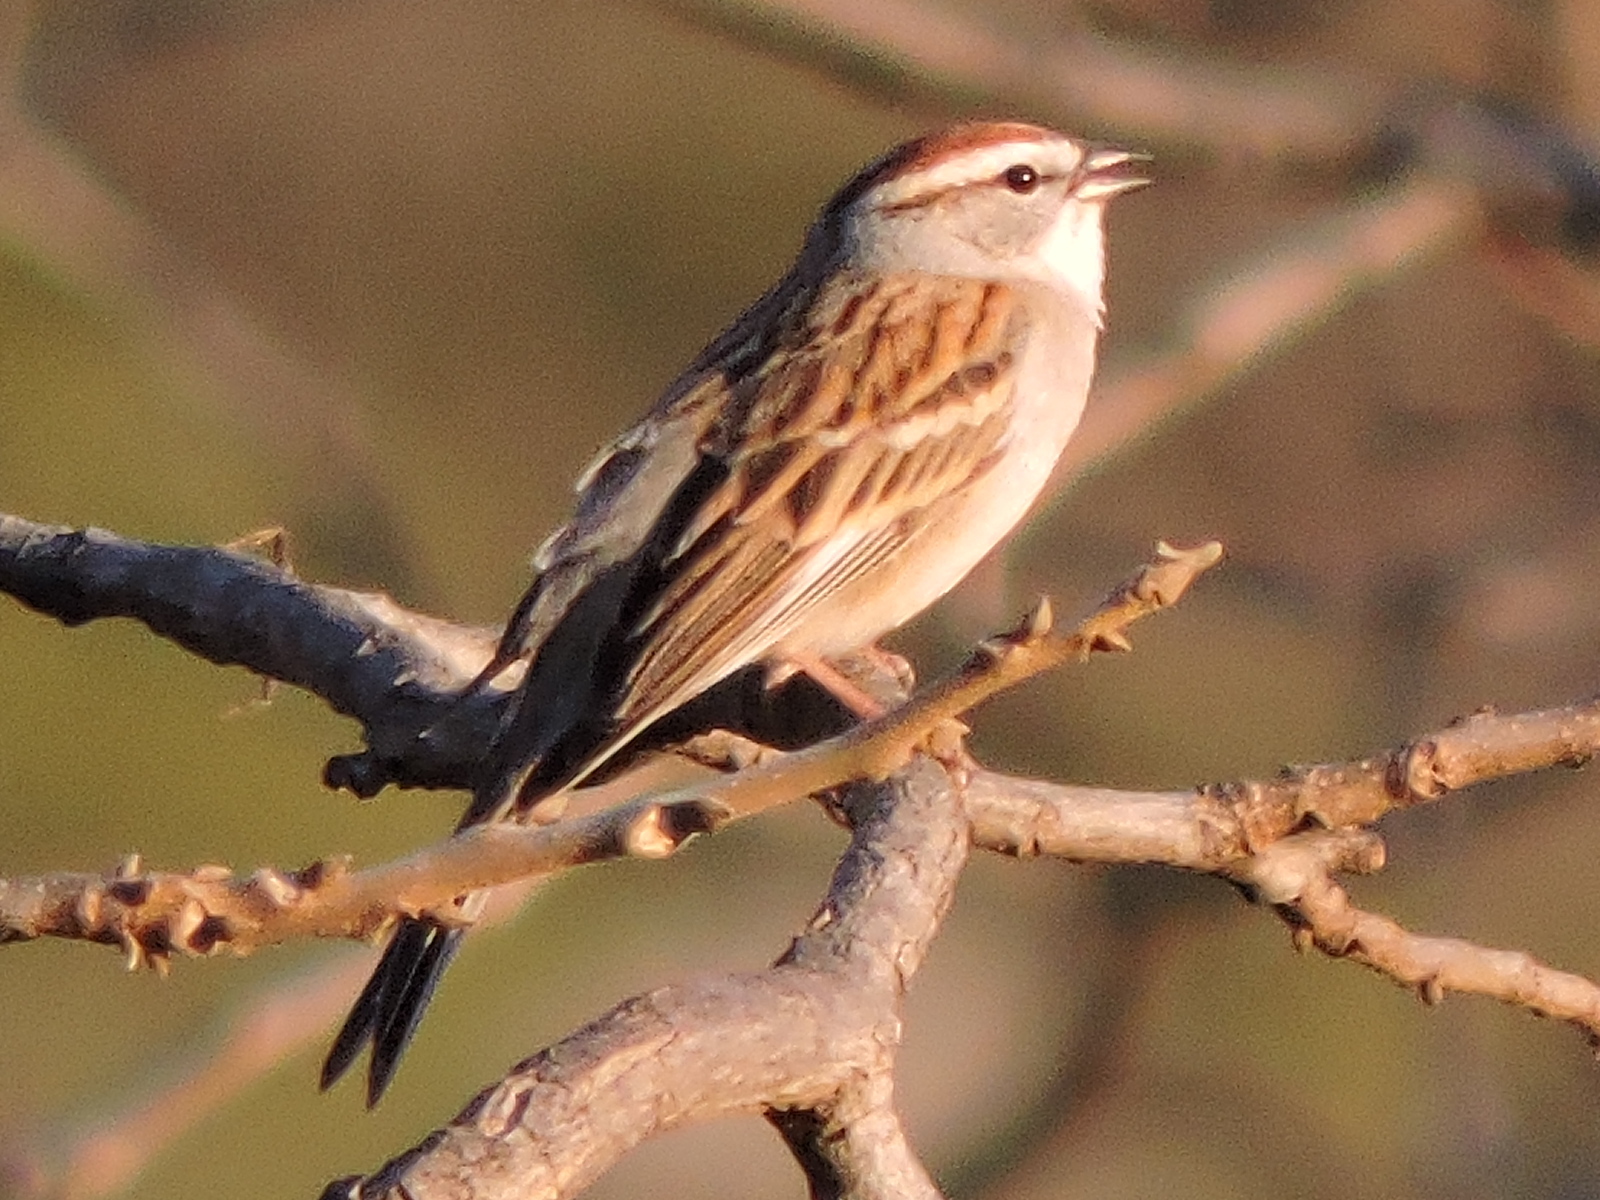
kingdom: Animalia
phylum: Chordata
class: Aves
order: Passeriformes
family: Passerellidae
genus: Spizella
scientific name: Spizella passerina
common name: Chipping sparrow
